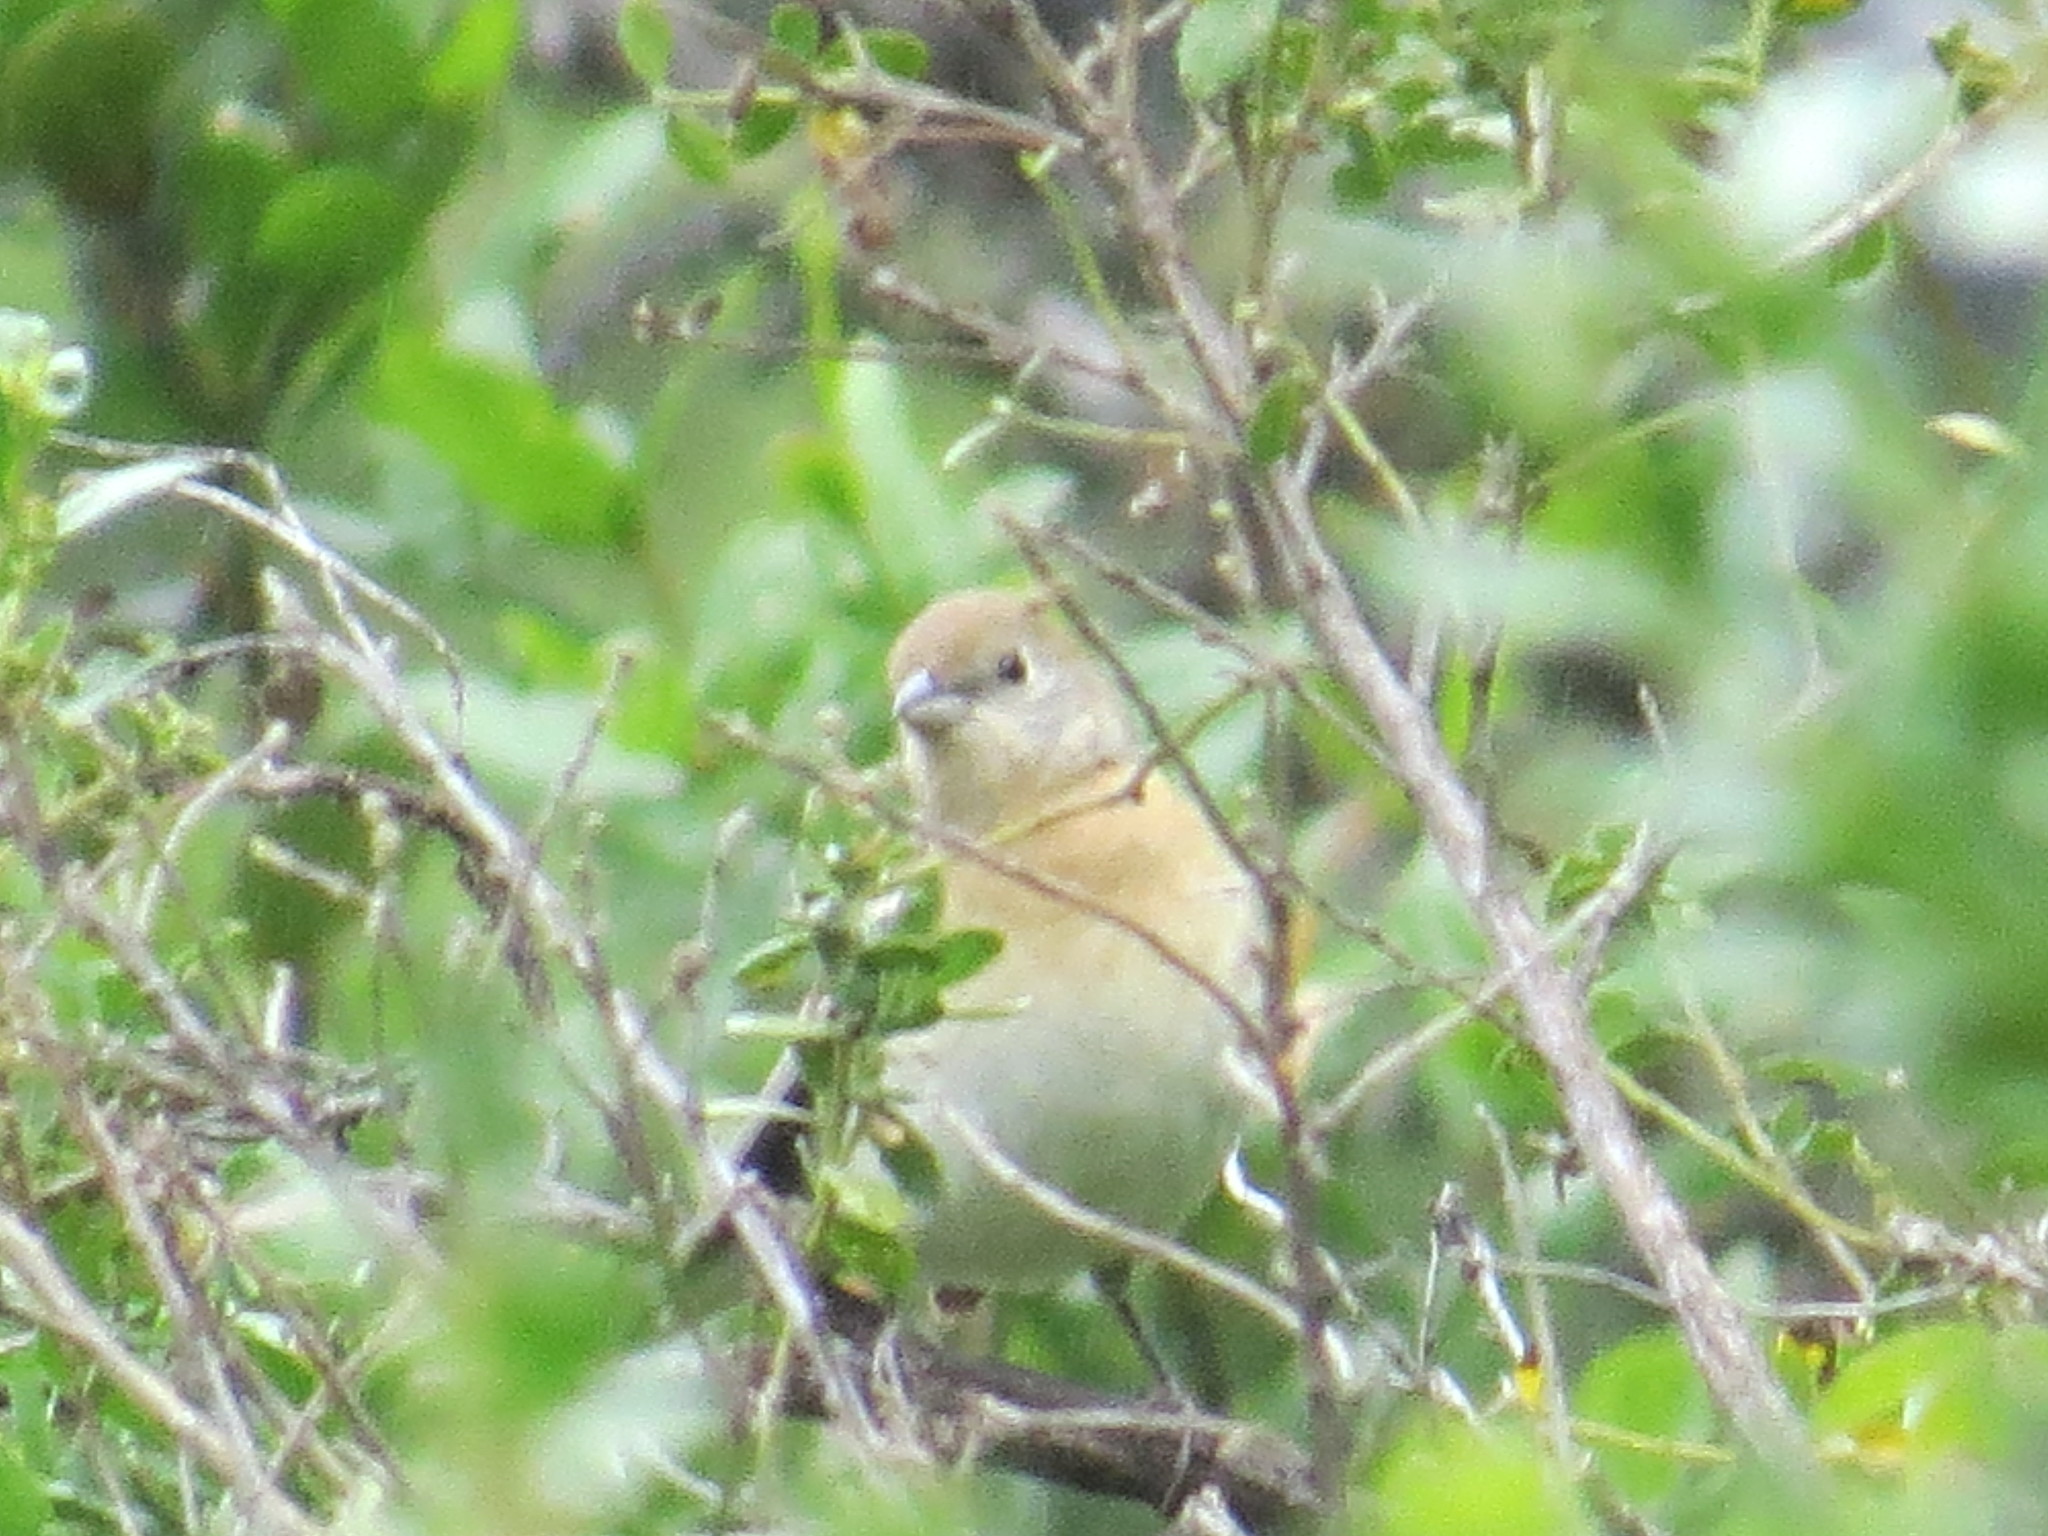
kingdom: Animalia
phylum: Chordata
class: Aves
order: Passeriformes
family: Cardinalidae
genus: Passerina
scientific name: Passerina amoena
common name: Lazuli bunting
